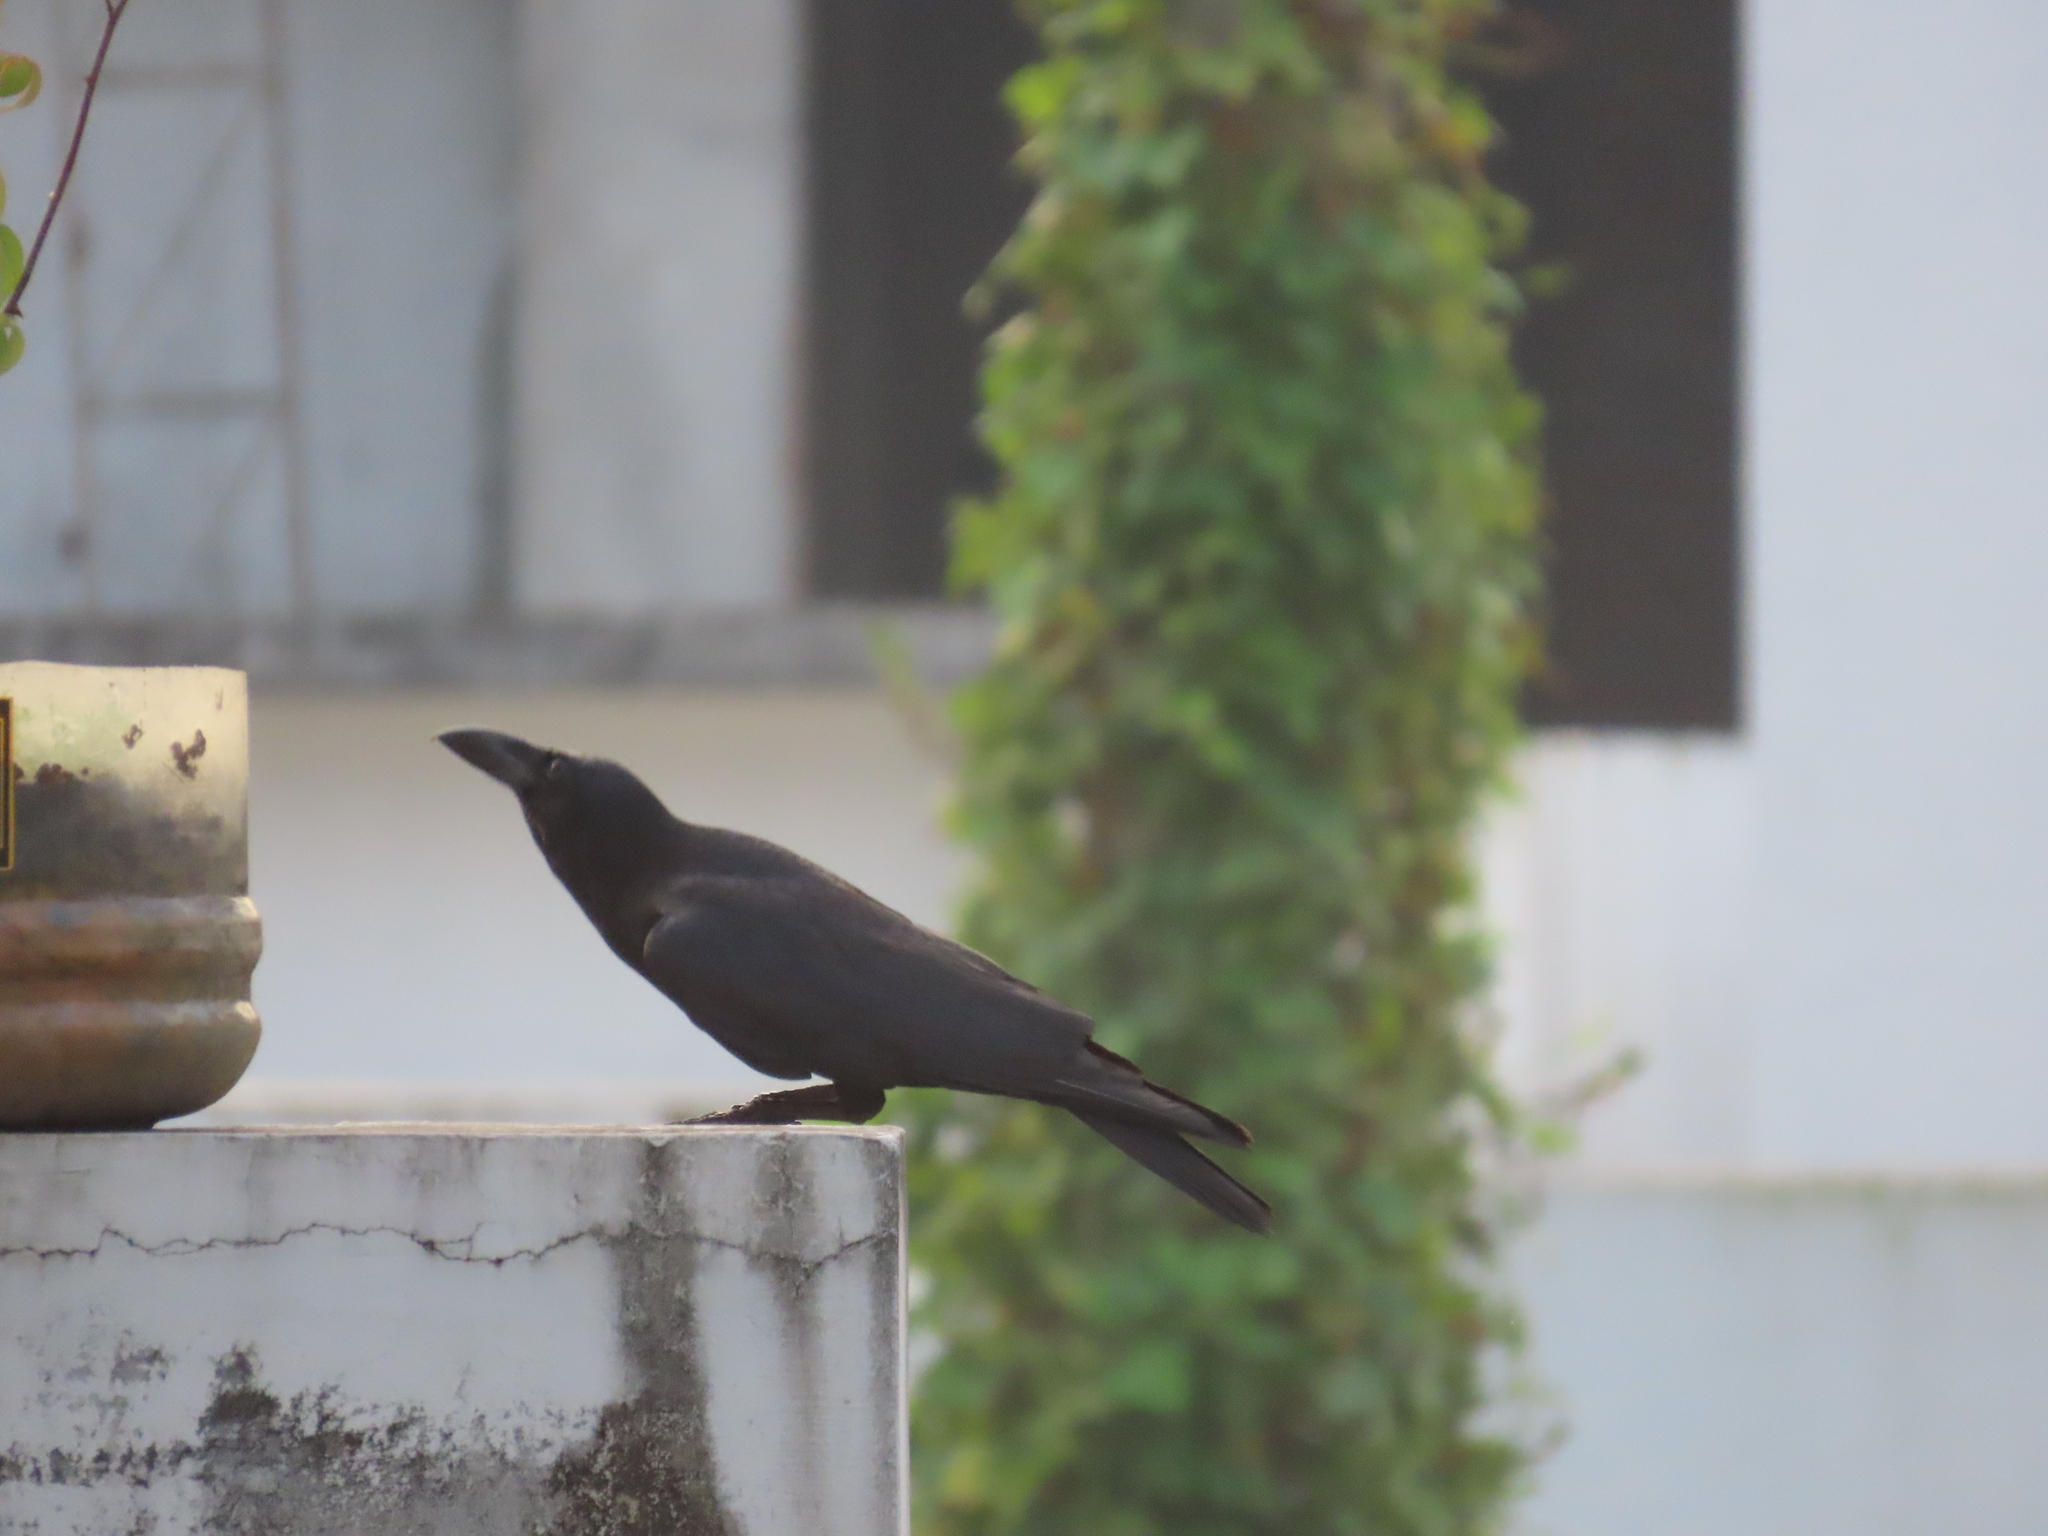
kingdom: Animalia
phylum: Chordata
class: Aves
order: Passeriformes
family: Corvidae
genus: Corvus
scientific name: Corvus macrorhynchos
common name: Large-billed crow
